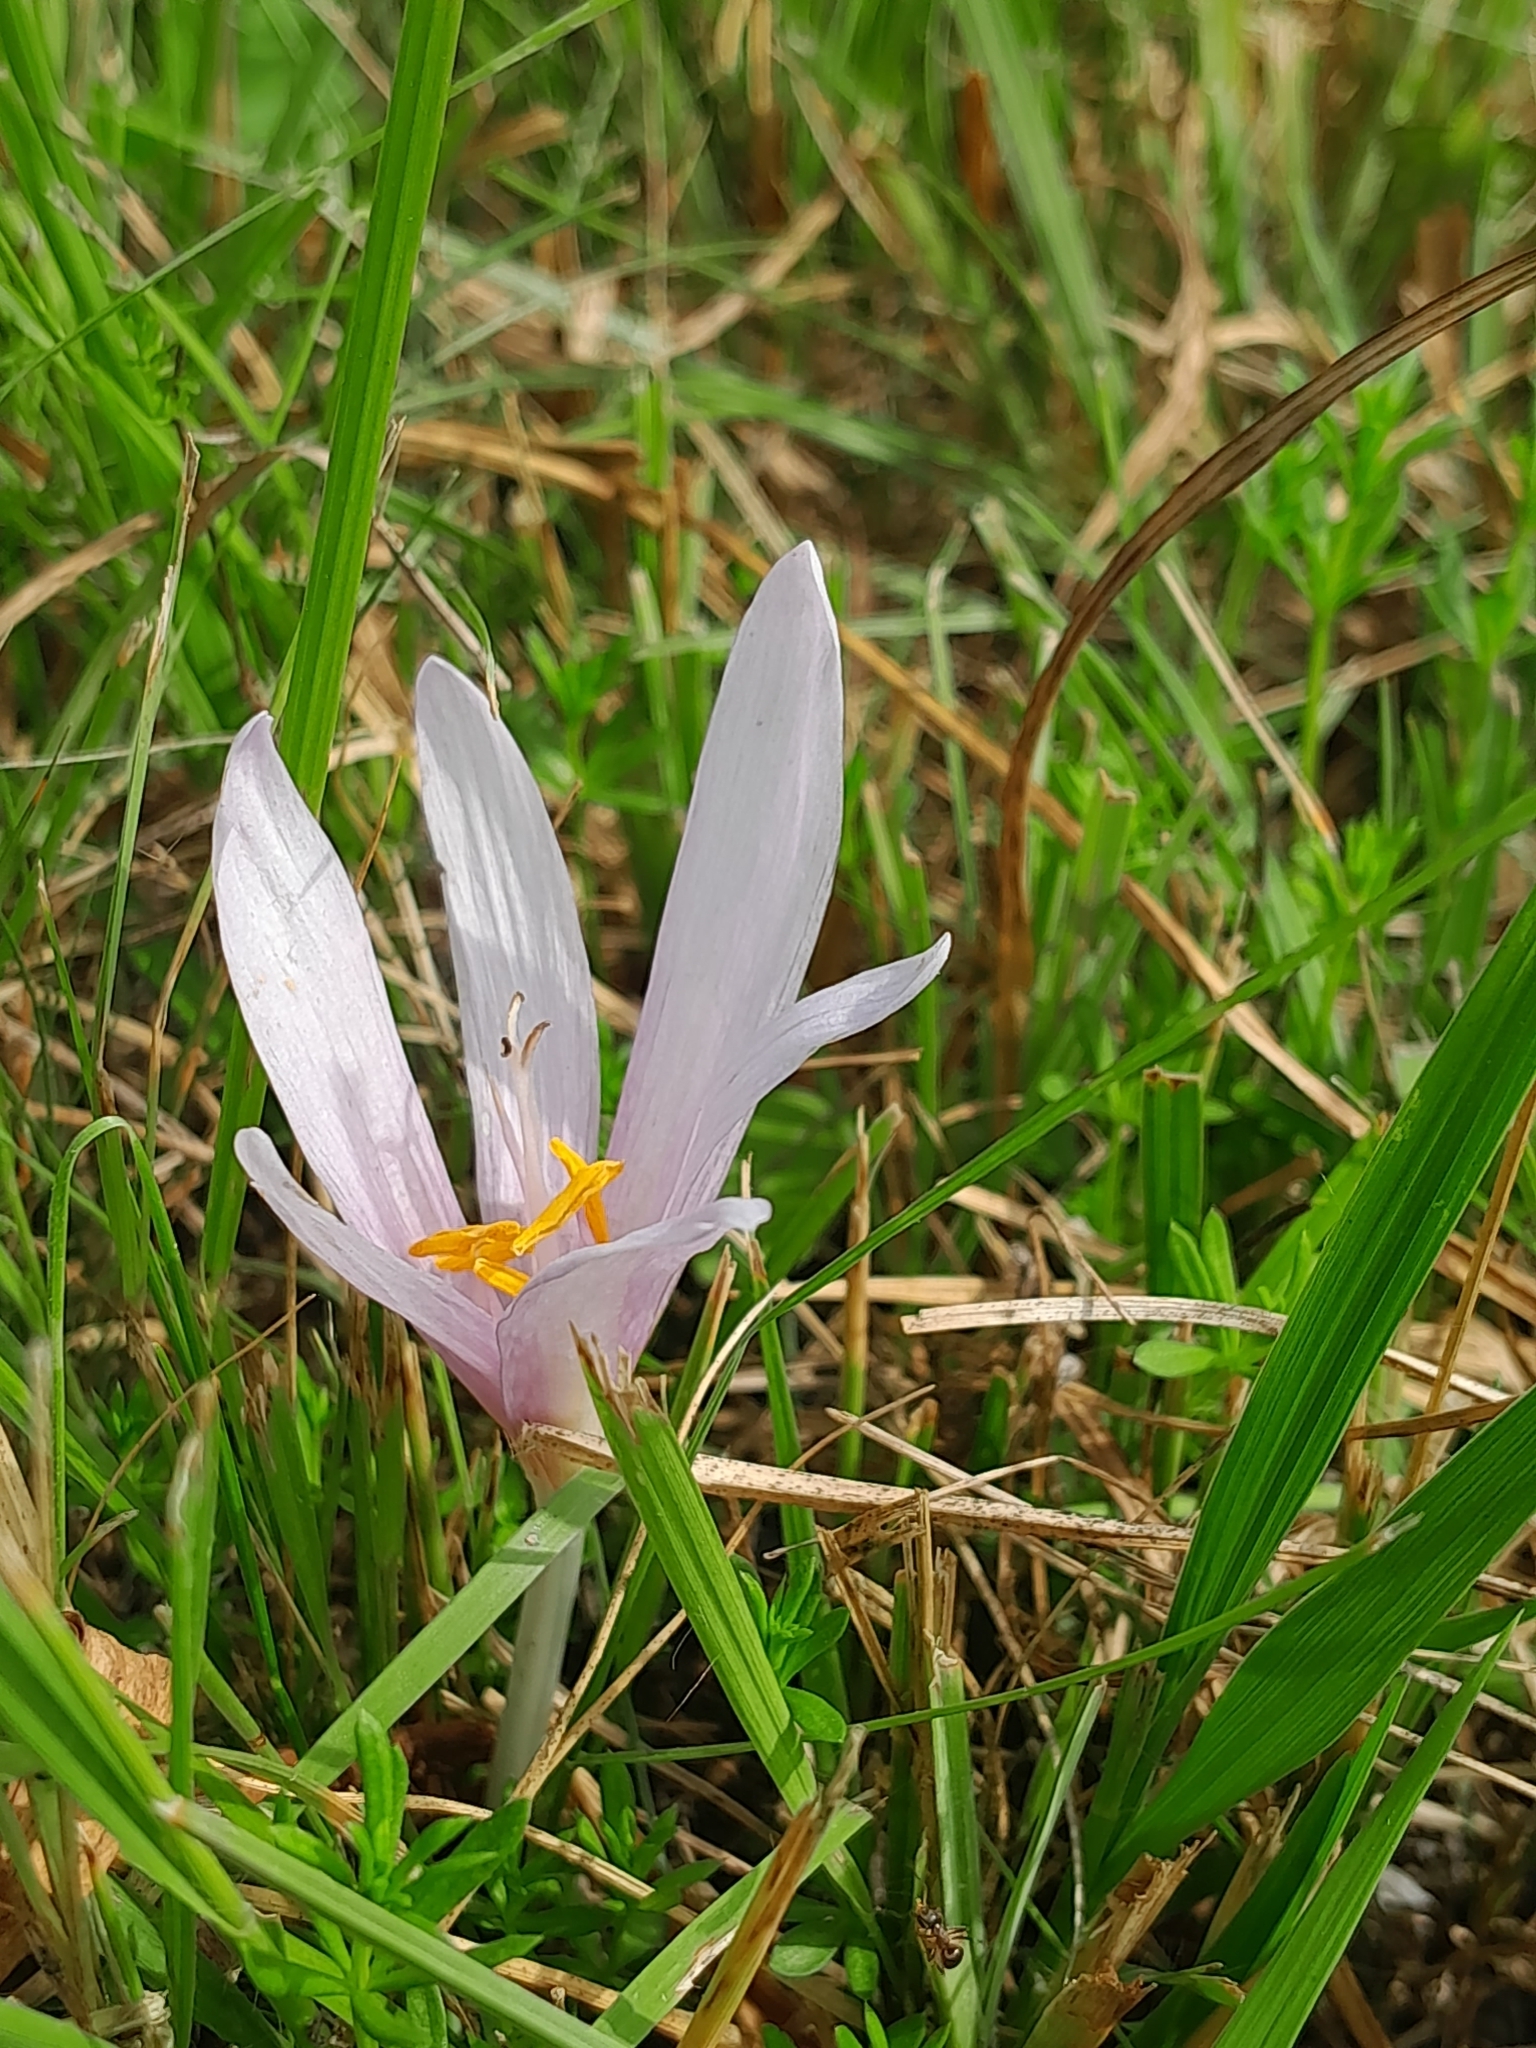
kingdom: Plantae
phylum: Tracheophyta
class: Liliopsida
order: Liliales
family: Colchicaceae
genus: Colchicum
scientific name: Colchicum autumnale
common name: Autumn crocus
